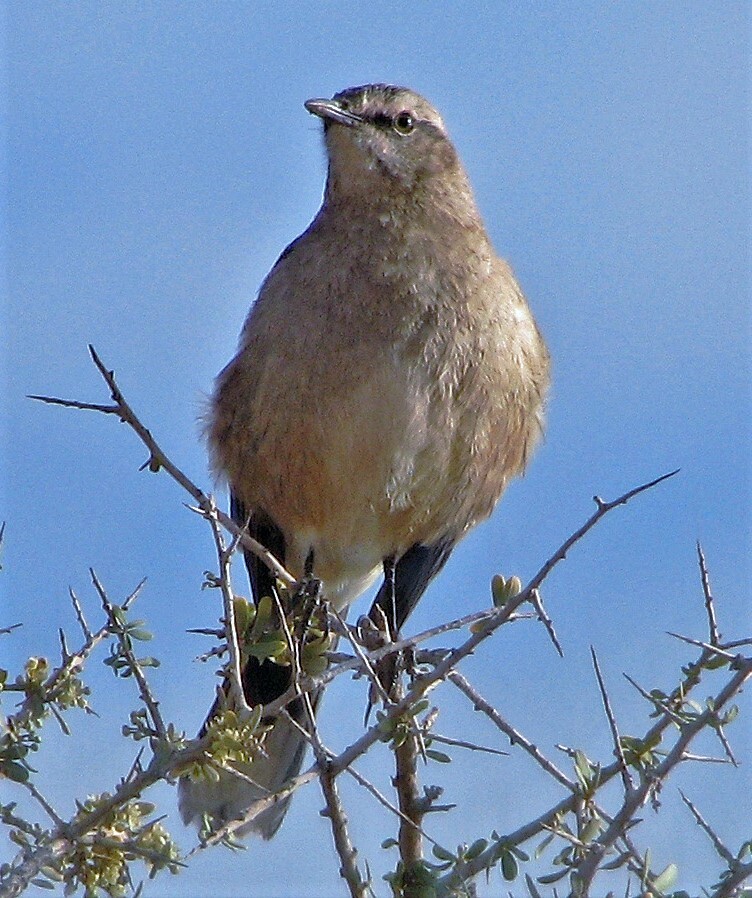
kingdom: Animalia
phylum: Chordata
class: Aves
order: Passeriformes
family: Mimidae
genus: Mimus
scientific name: Mimus patagonicus
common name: Patagonian mockingbird
